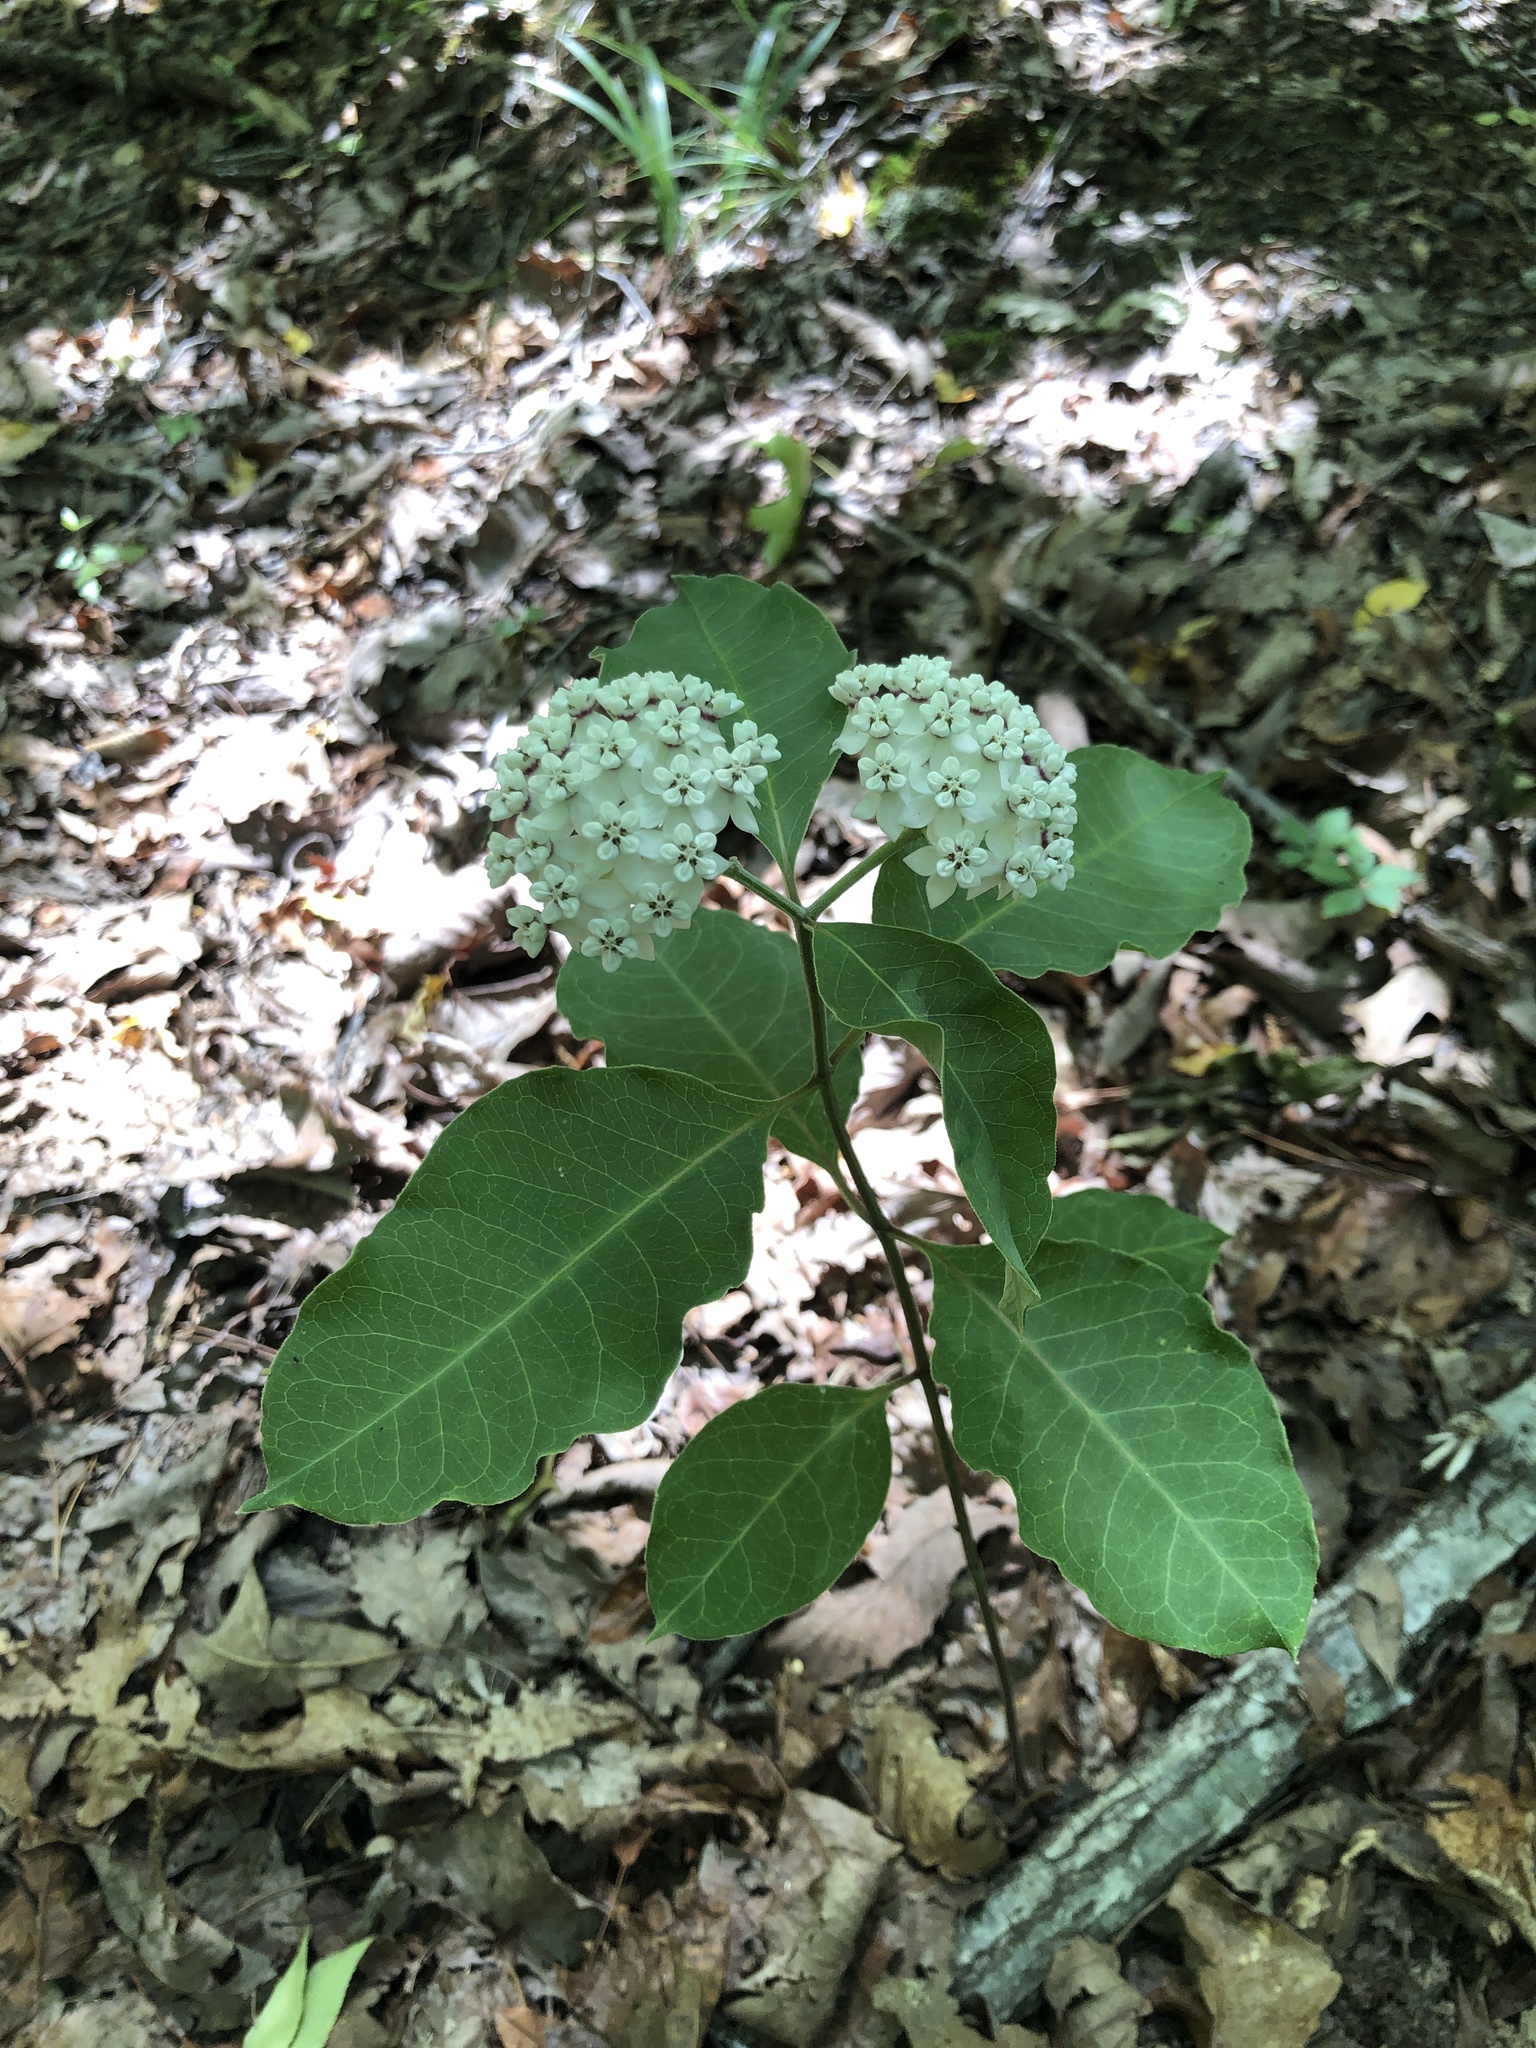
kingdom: Plantae
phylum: Tracheophyta
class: Magnoliopsida
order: Gentianales
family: Apocynaceae
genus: Asclepias
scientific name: Asclepias variegata
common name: Variegated milkweed
